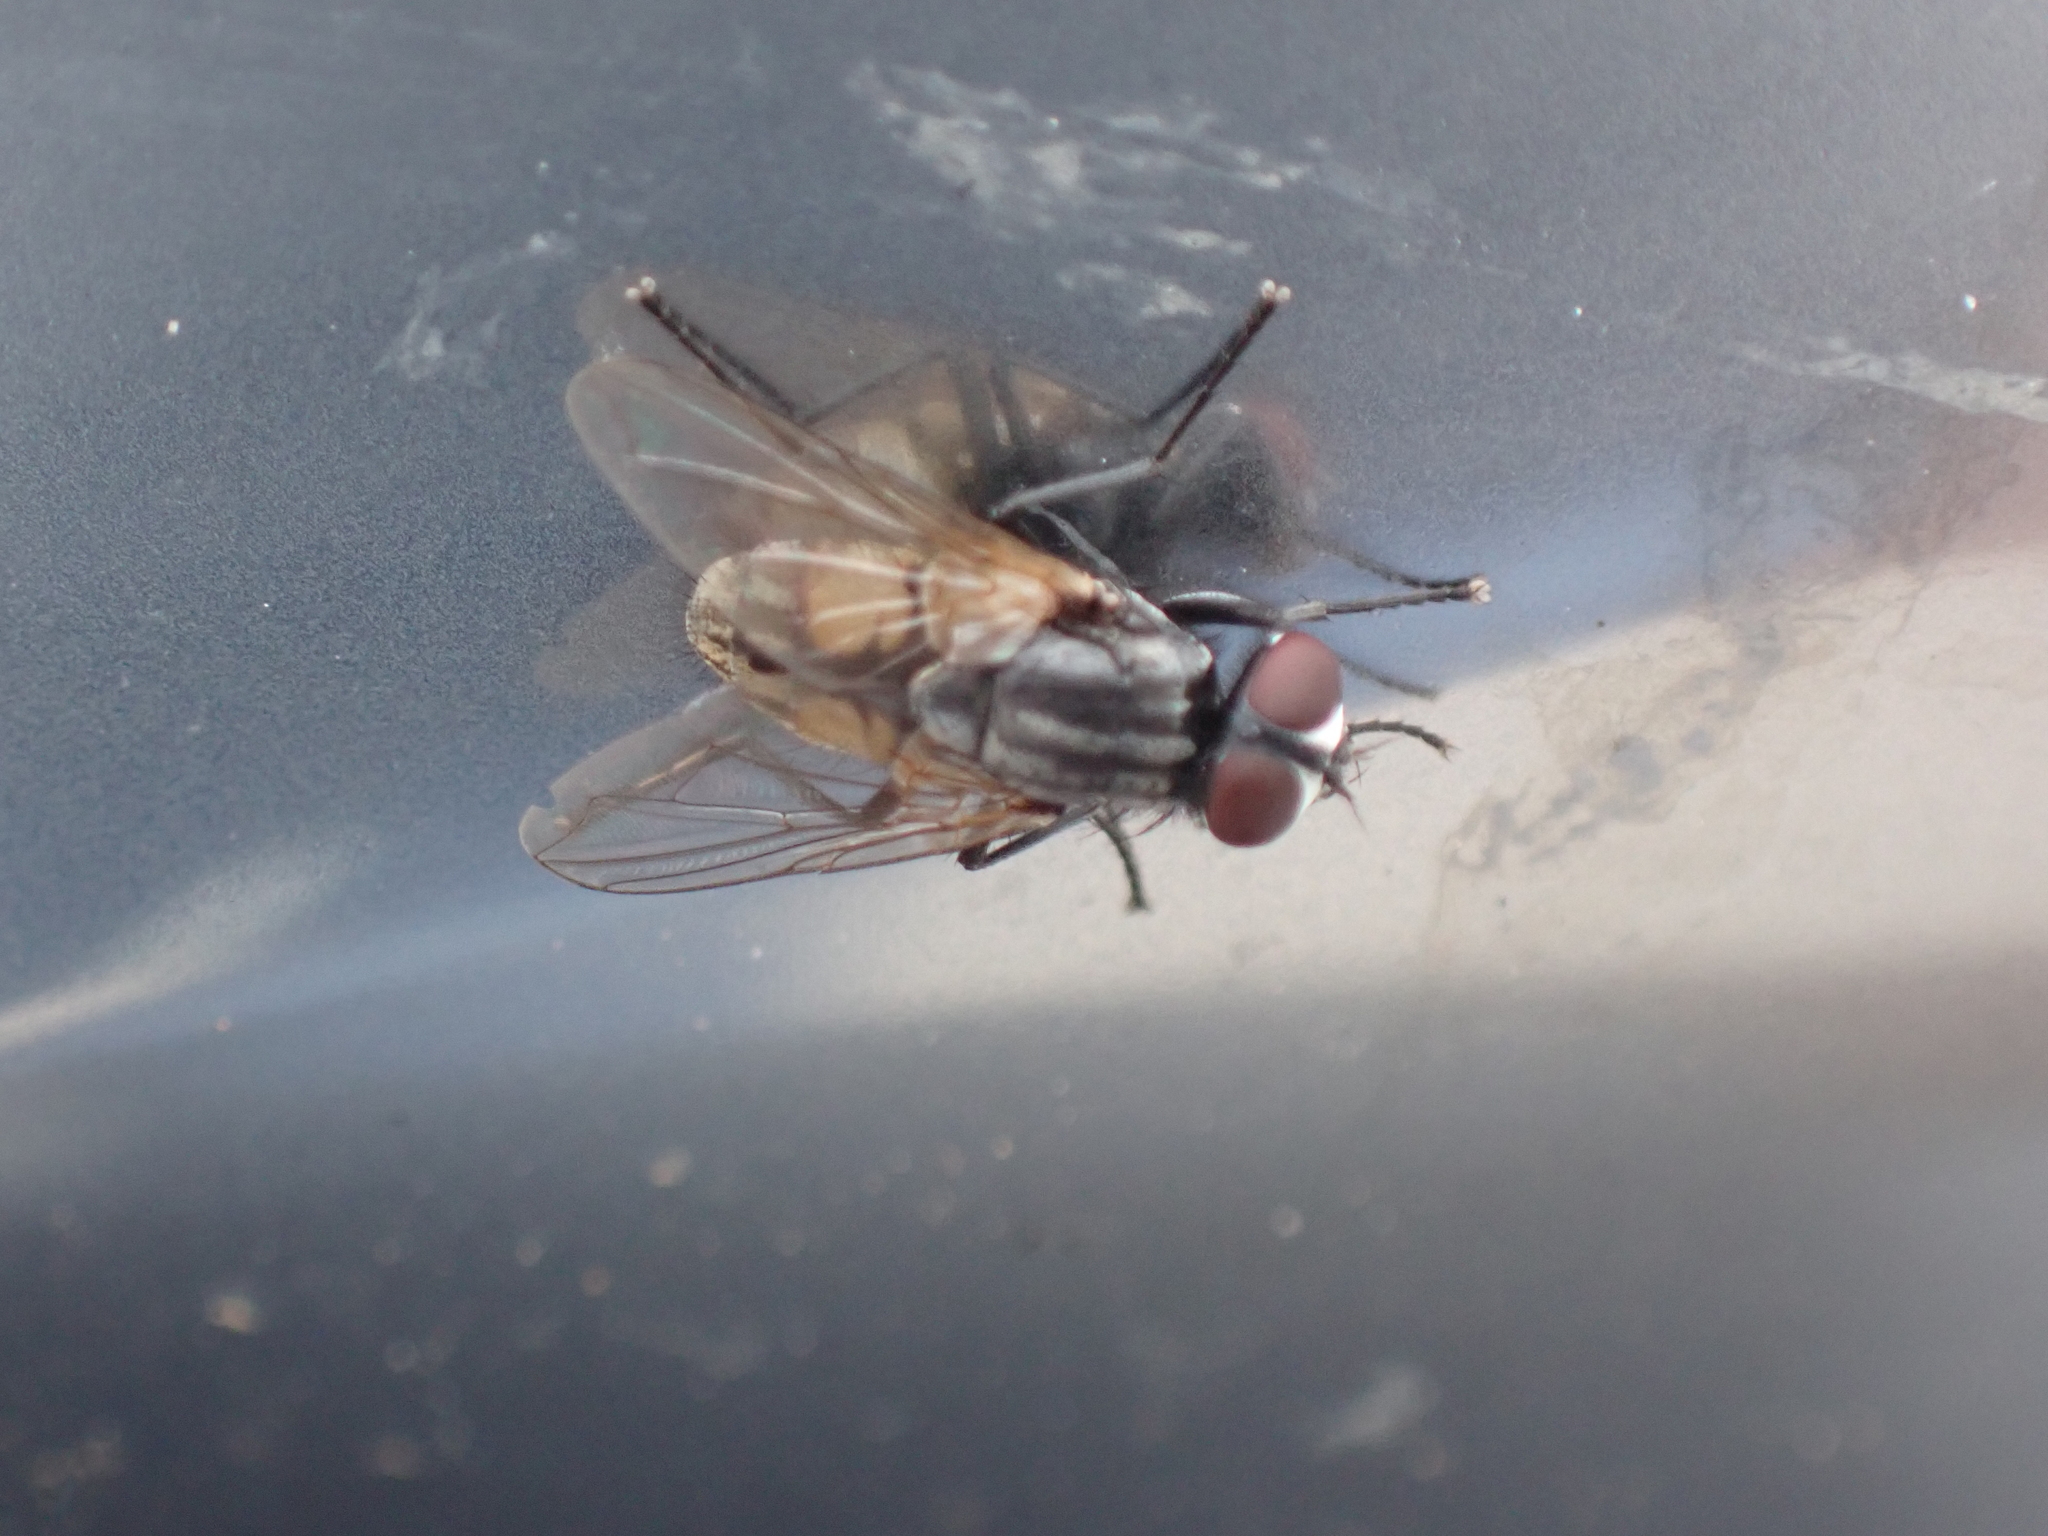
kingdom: Animalia
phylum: Arthropoda
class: Insecta
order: Diptera
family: Muscidae
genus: Musca
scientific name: Musca domestica
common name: House fly
